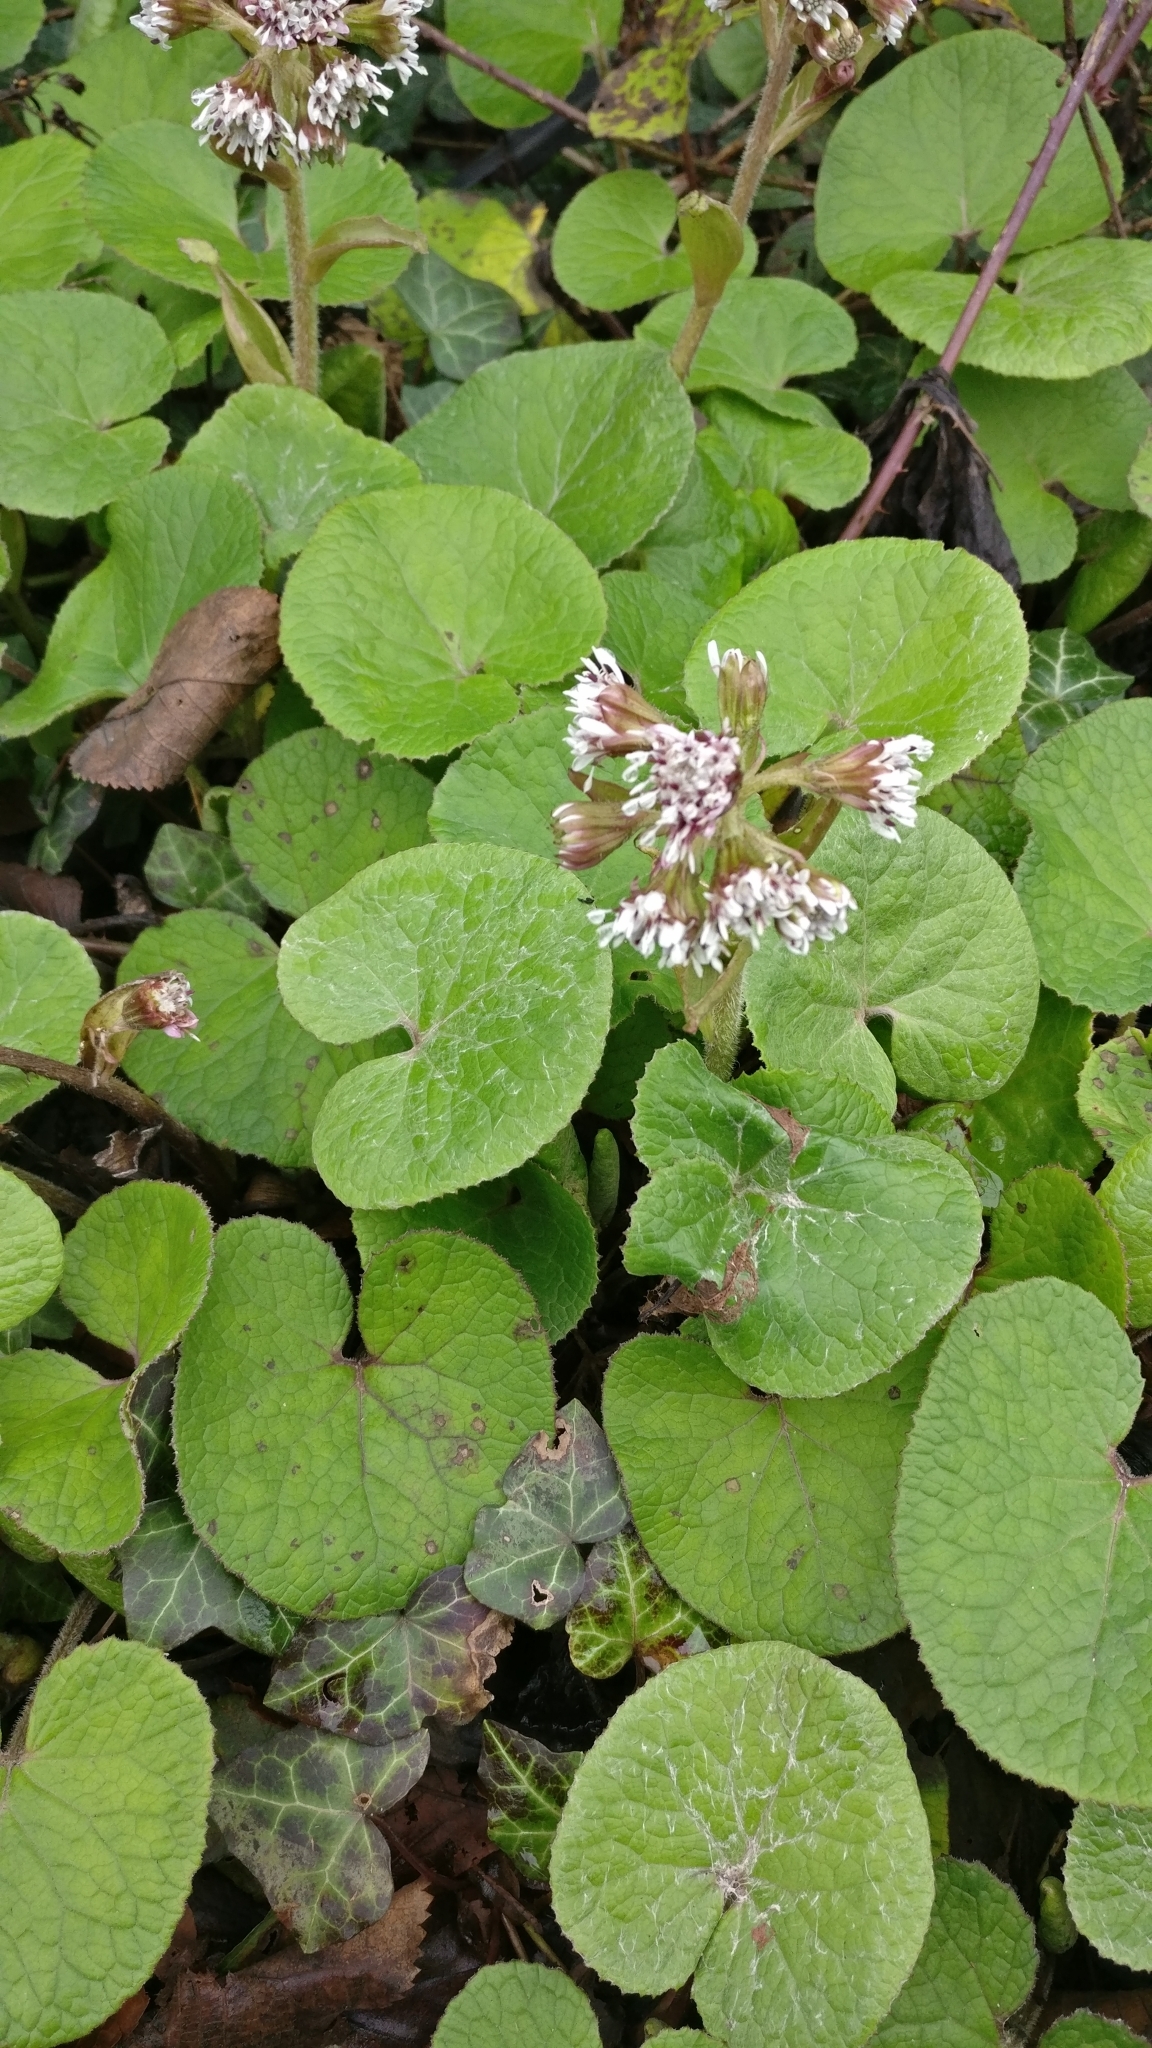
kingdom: Plantae
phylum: Tracheophyta
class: Magnoliopsida
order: Asterales
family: Asteraceae
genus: Petasites
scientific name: Petasites pyrenaicus
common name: Winter heliotrope
